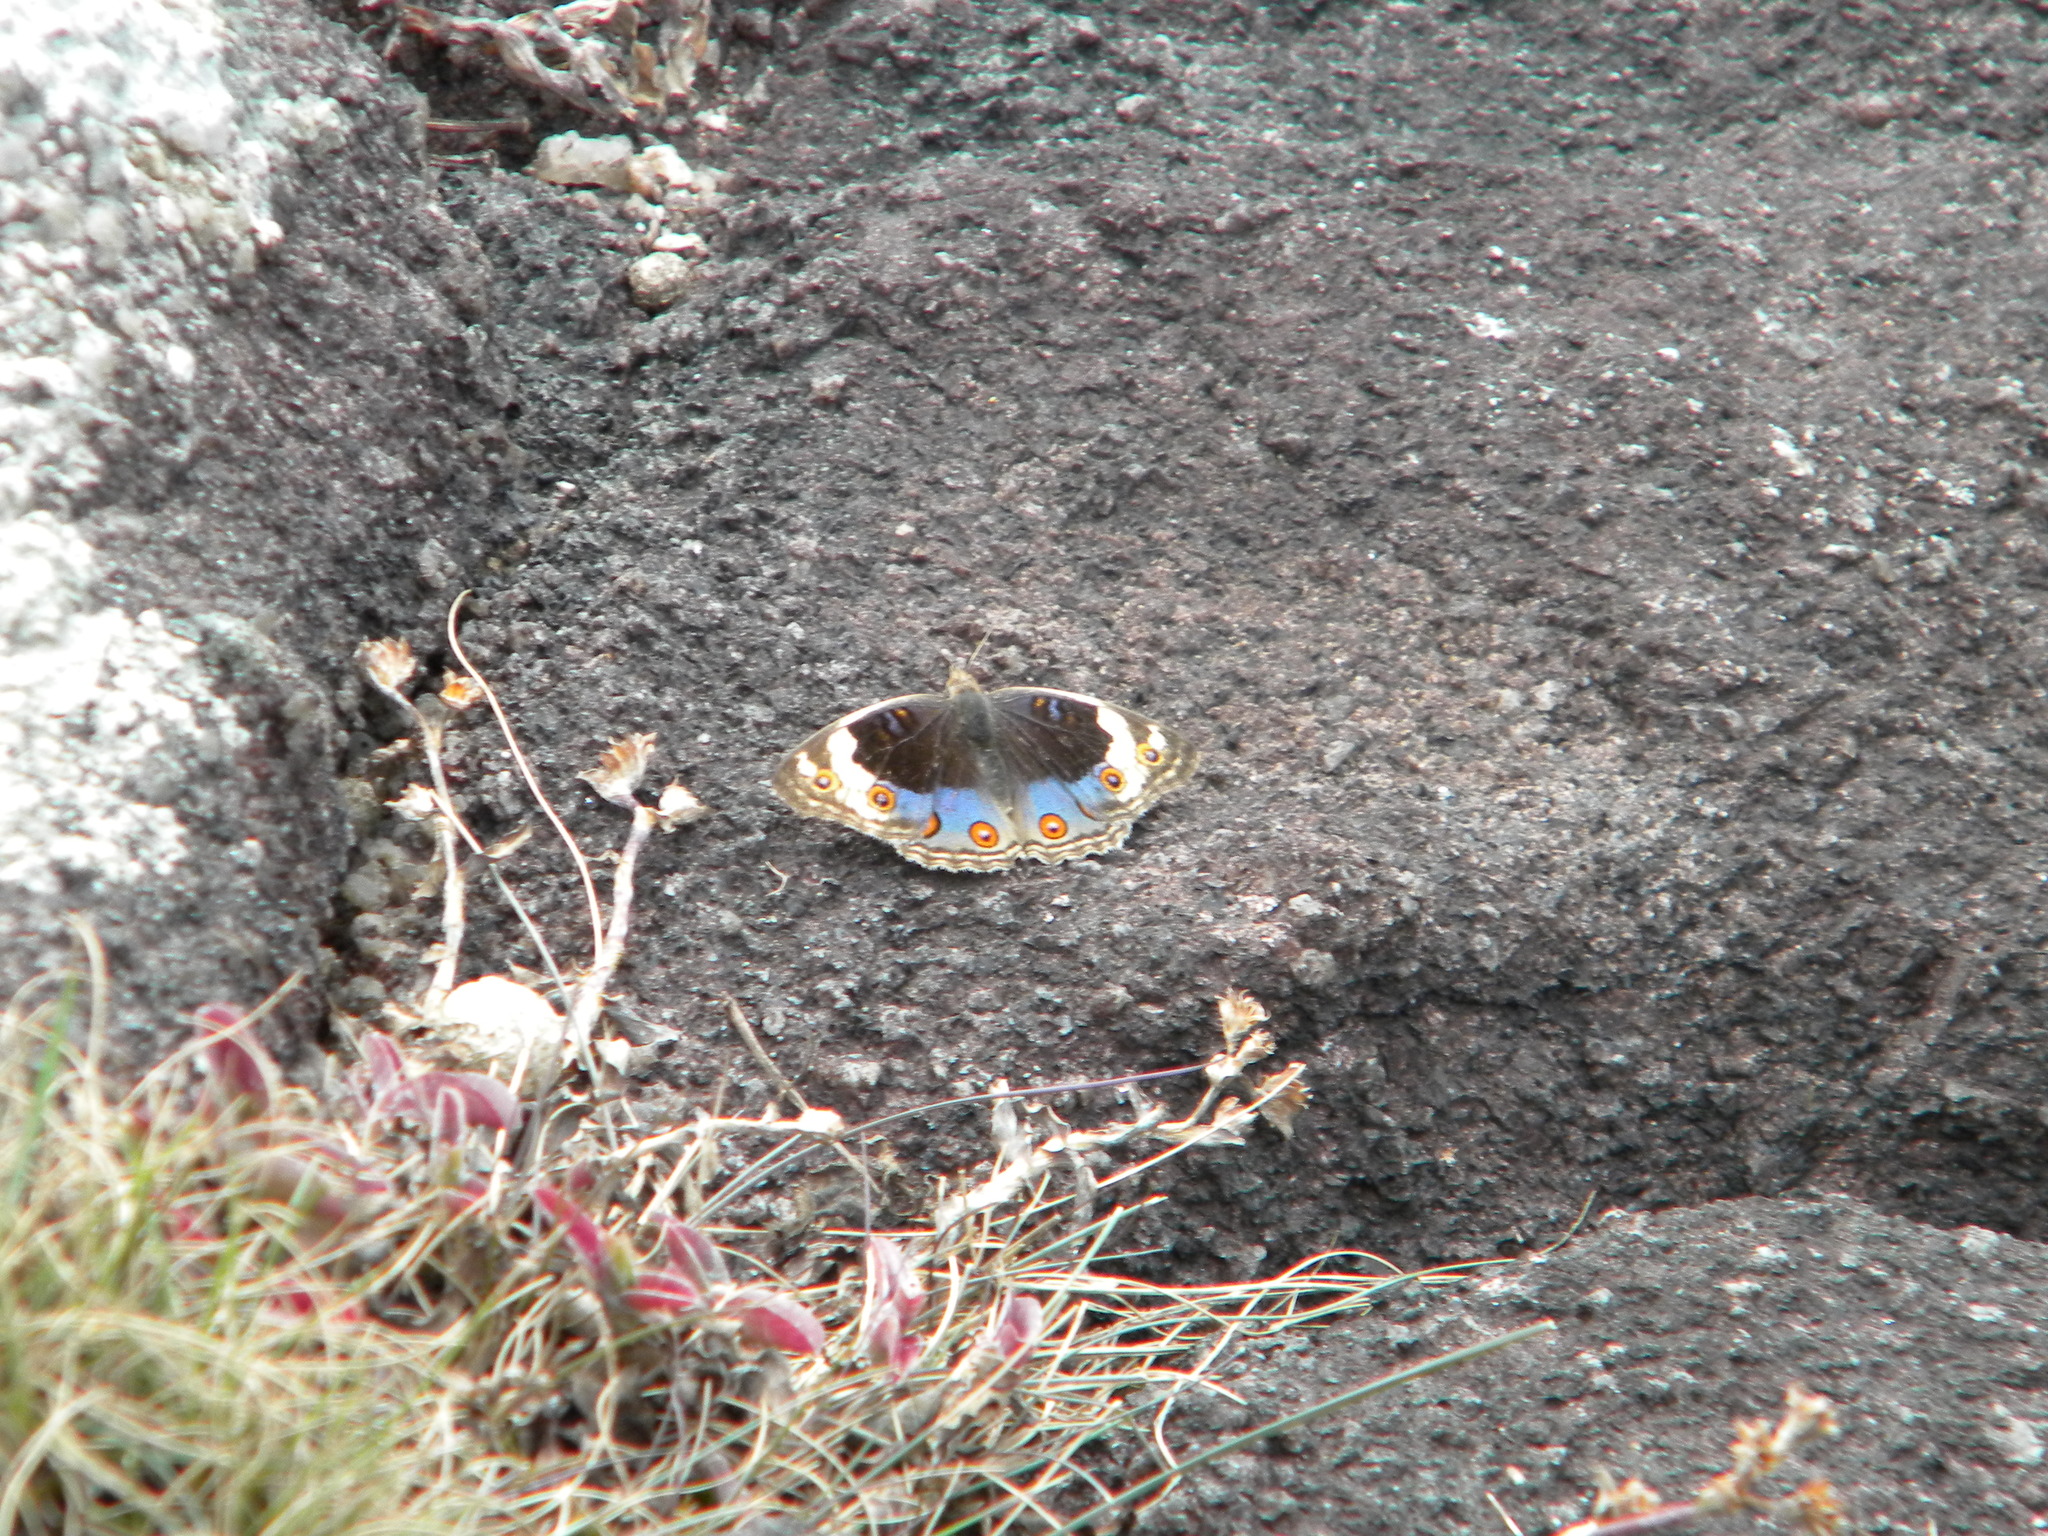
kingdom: Animalia
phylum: Arthropoda
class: Insecta
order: Lepidoptera
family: Nymphalidae
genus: Junonia
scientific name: Junonia orithya
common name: Blue pansy
